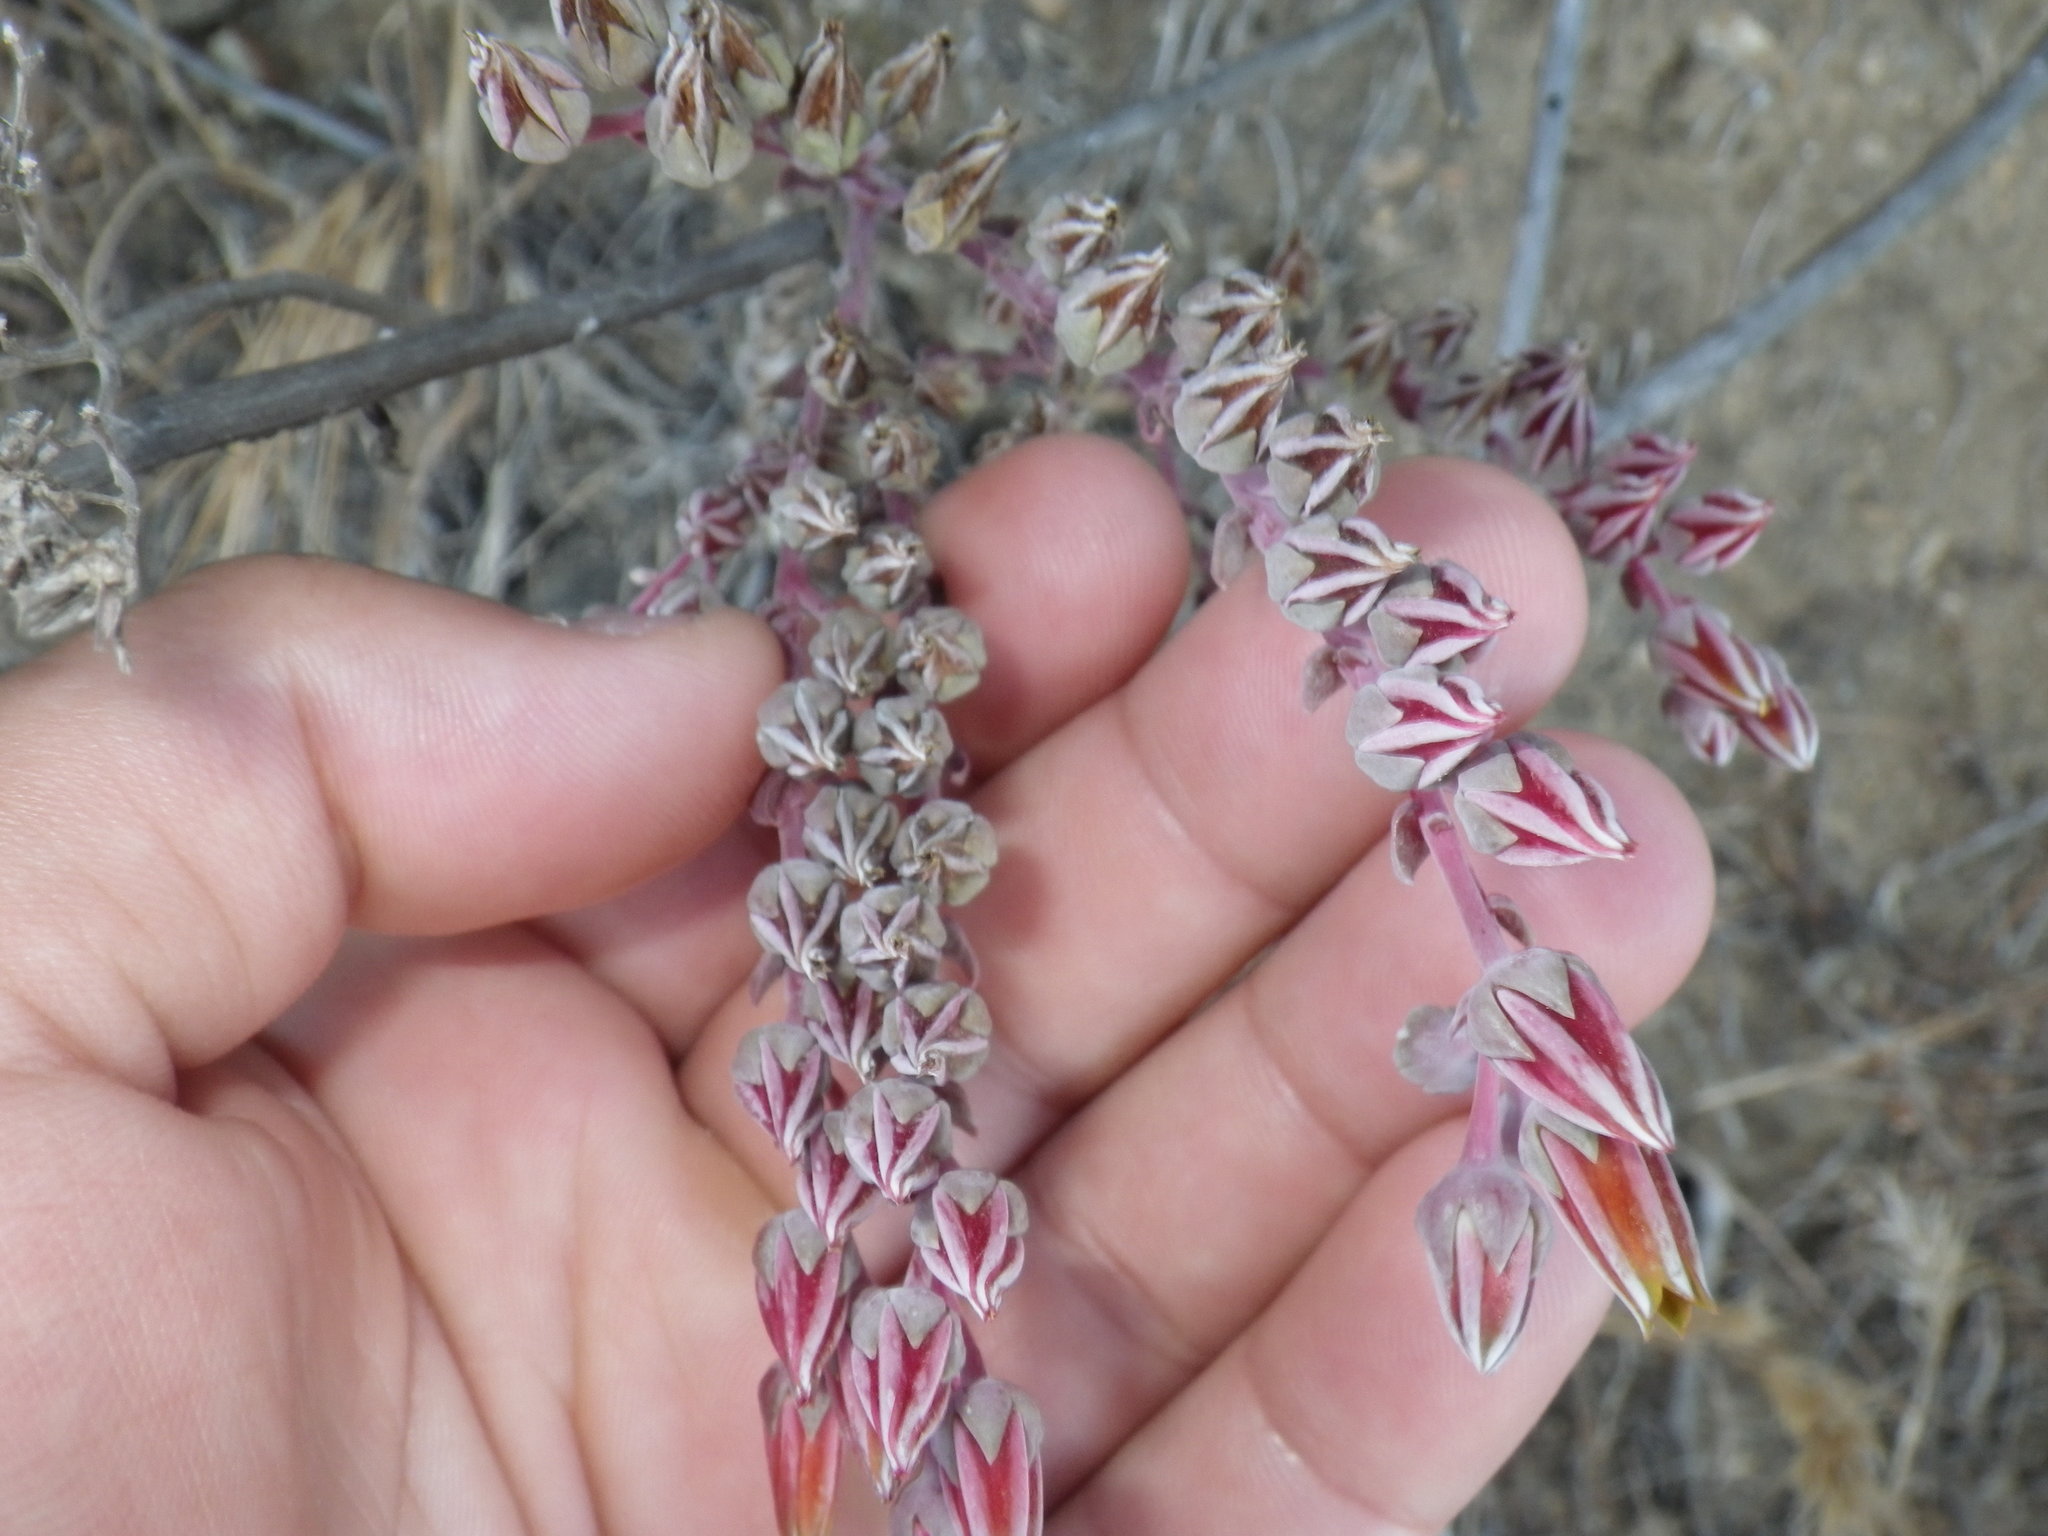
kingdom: Plantae
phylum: Tracheophyta
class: Magnoliopsida
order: Saxifragales
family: Crassulaceae
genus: Dudleya
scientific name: Dudleya lanceolata
